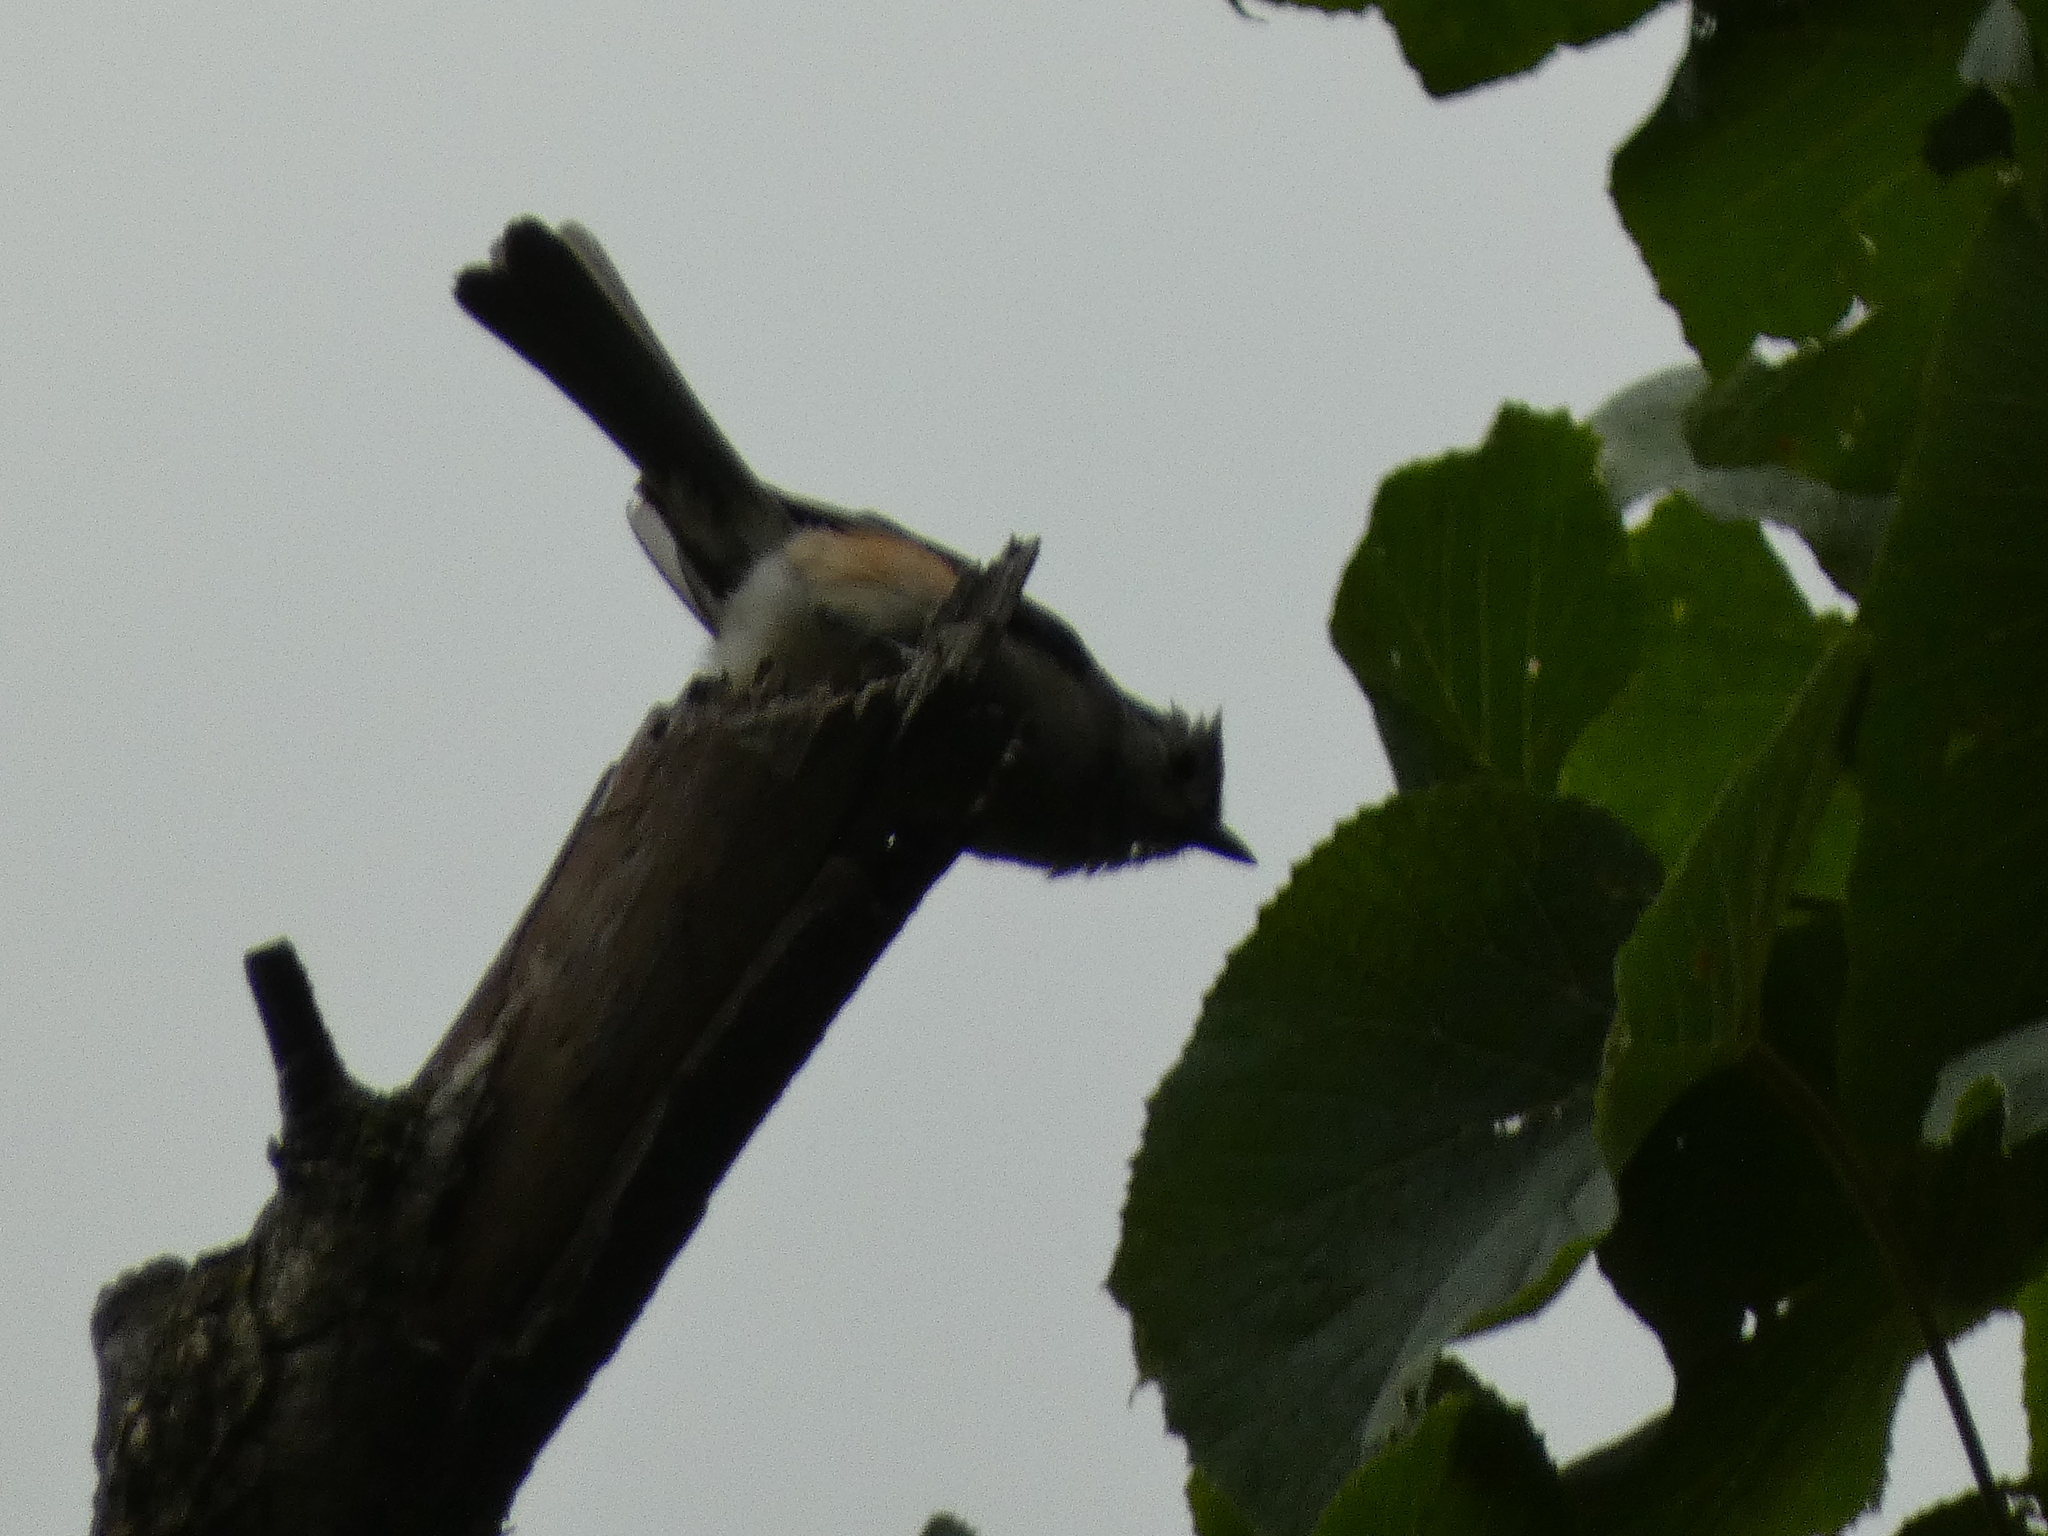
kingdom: Animalia
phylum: Chordata
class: Aves
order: Passeriformes
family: Paridae
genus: Baeolophus
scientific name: Baeolophus bicolor
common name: Tufted titmouse
